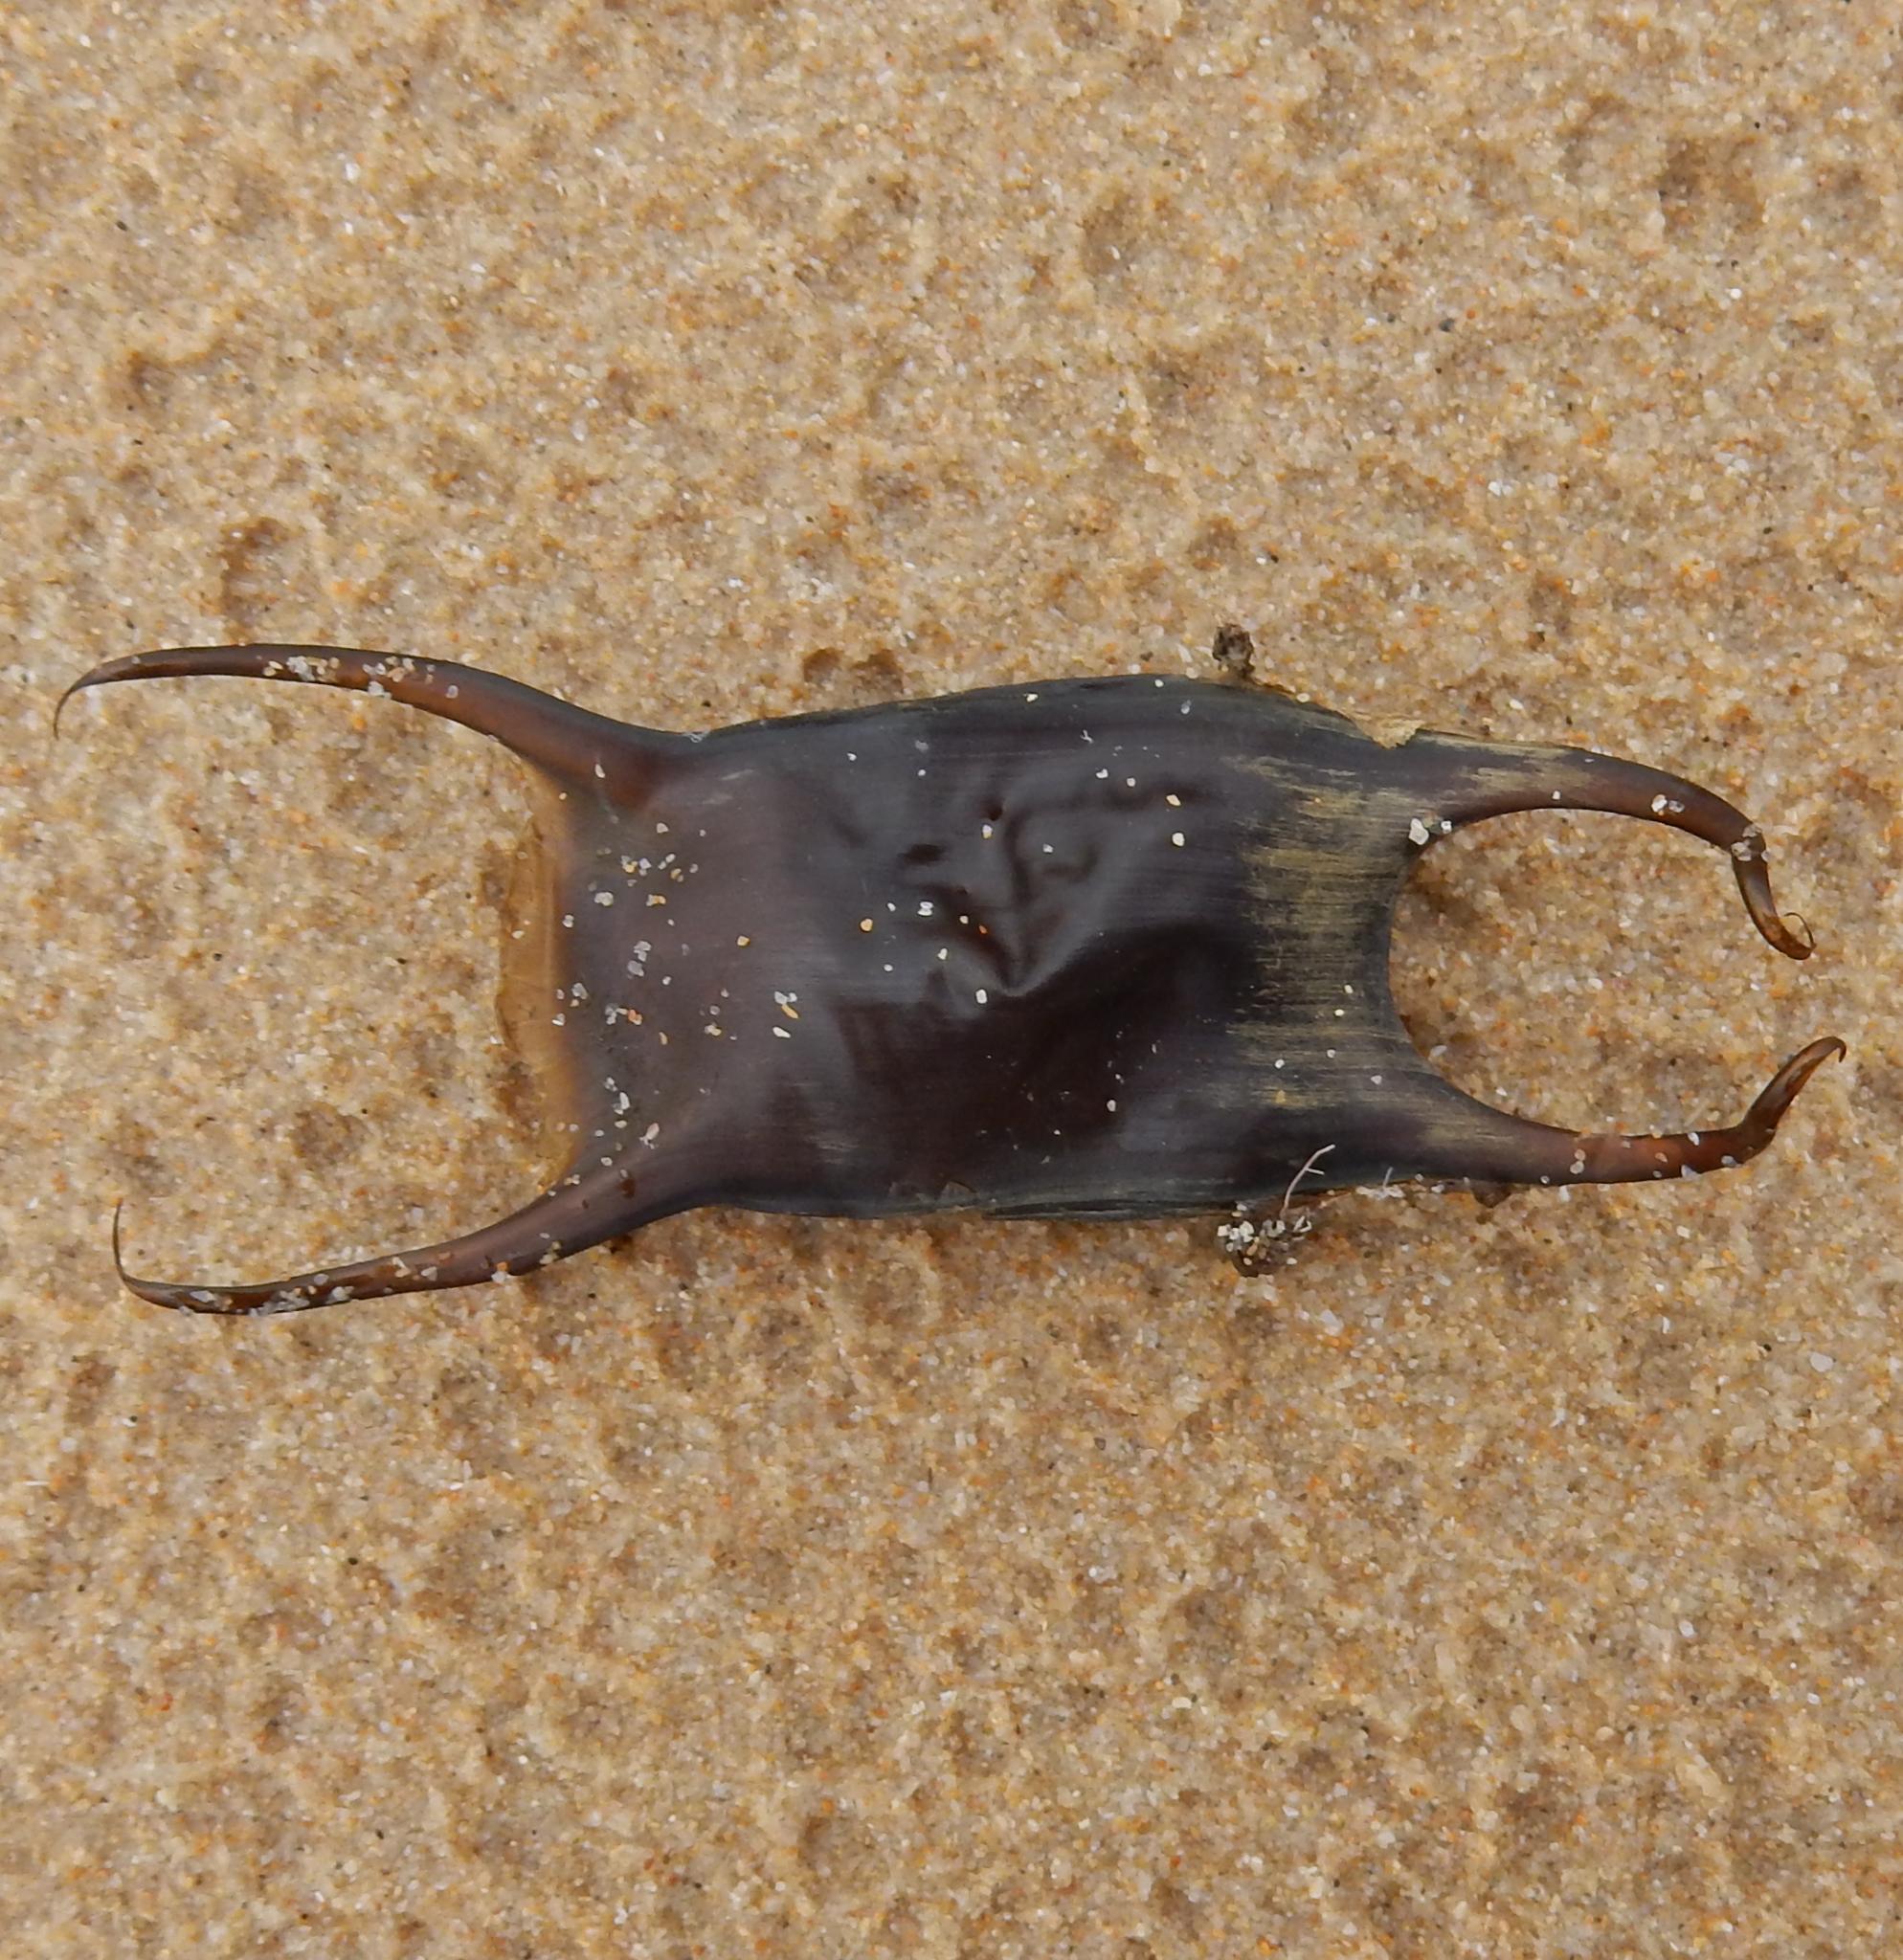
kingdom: Animalia
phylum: Chordata
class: Elasmobranchii
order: Rajiformes
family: Rajidae
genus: Raja
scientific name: Raja ocellifera
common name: Twineye skate
